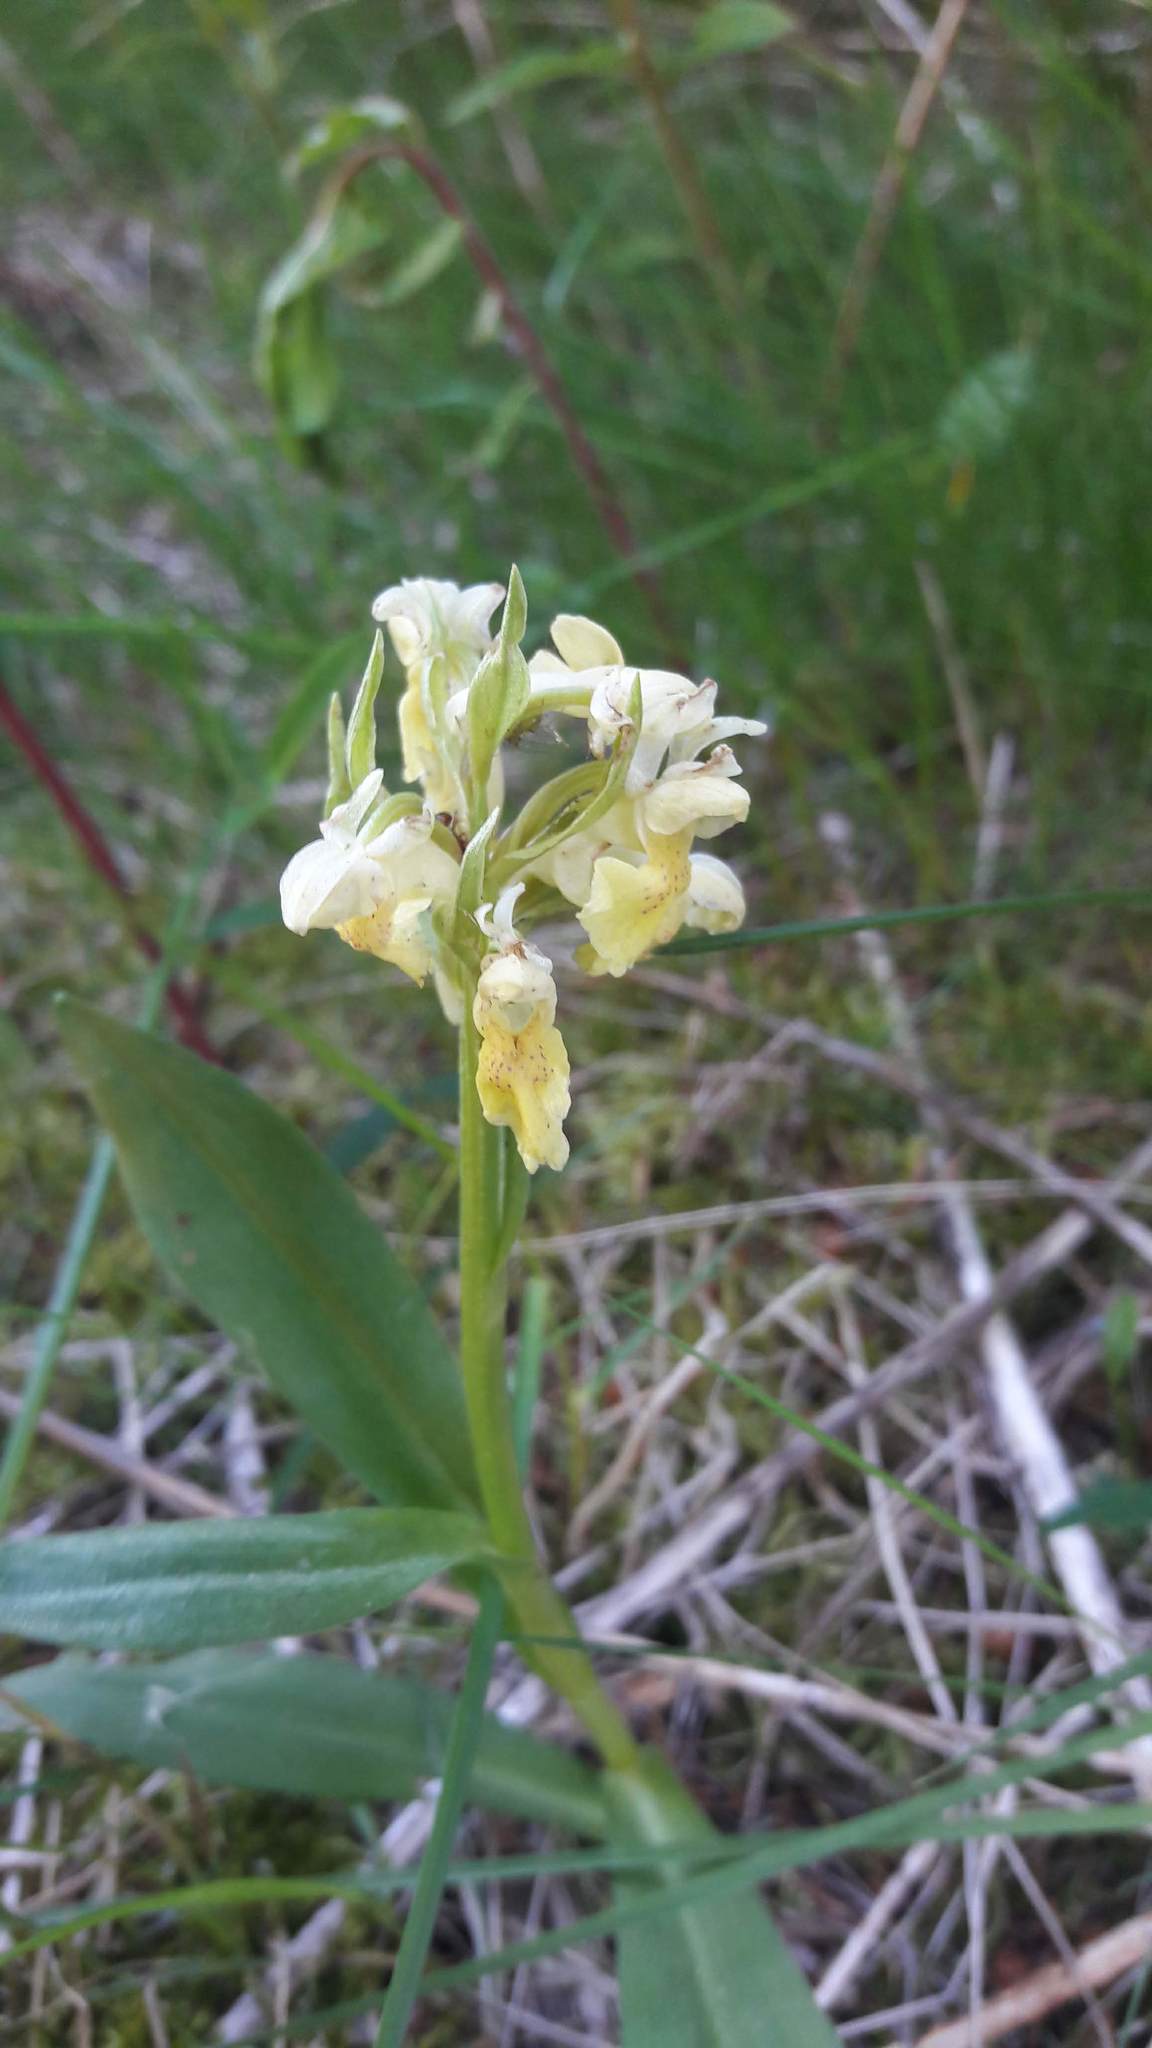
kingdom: Plantae
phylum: Tracheophyta
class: Liliopsida
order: Asparagales
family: Orchidaceae
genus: Dactylorhiza
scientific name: Dactylorhiza sambucina
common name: Elder-flowered orchid
